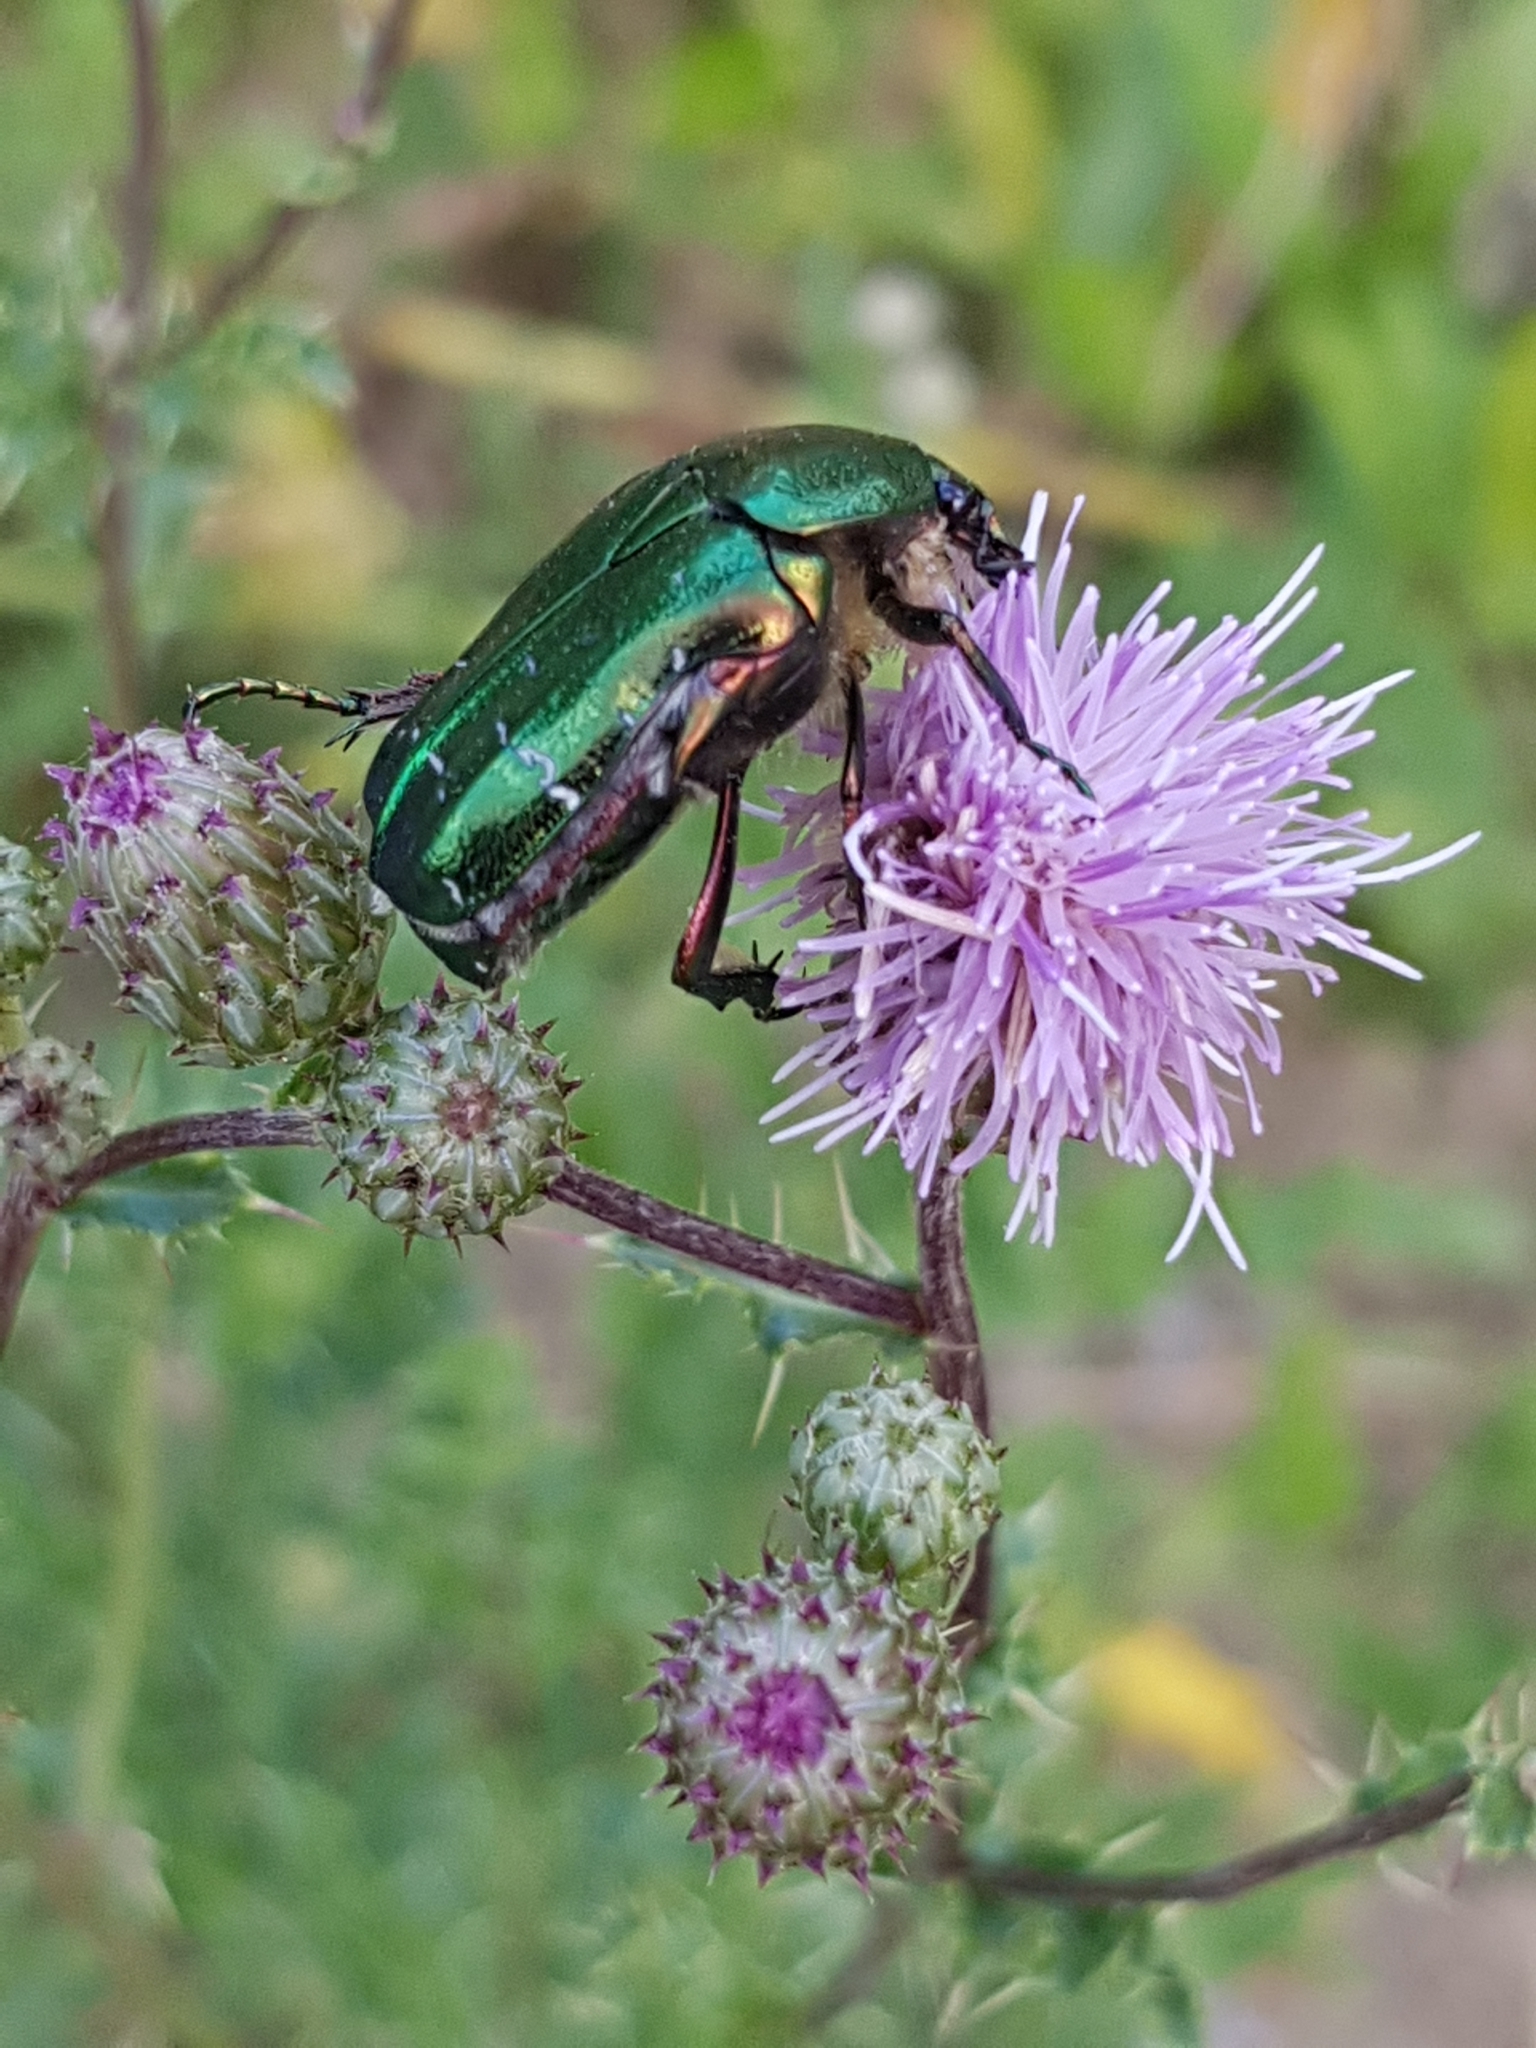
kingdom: Animalia
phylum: Arthropoda
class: Insecta
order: Coleoptera
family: Scarabaeidae
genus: Cetonia
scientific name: Cetonia aurata
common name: Rose chafer
